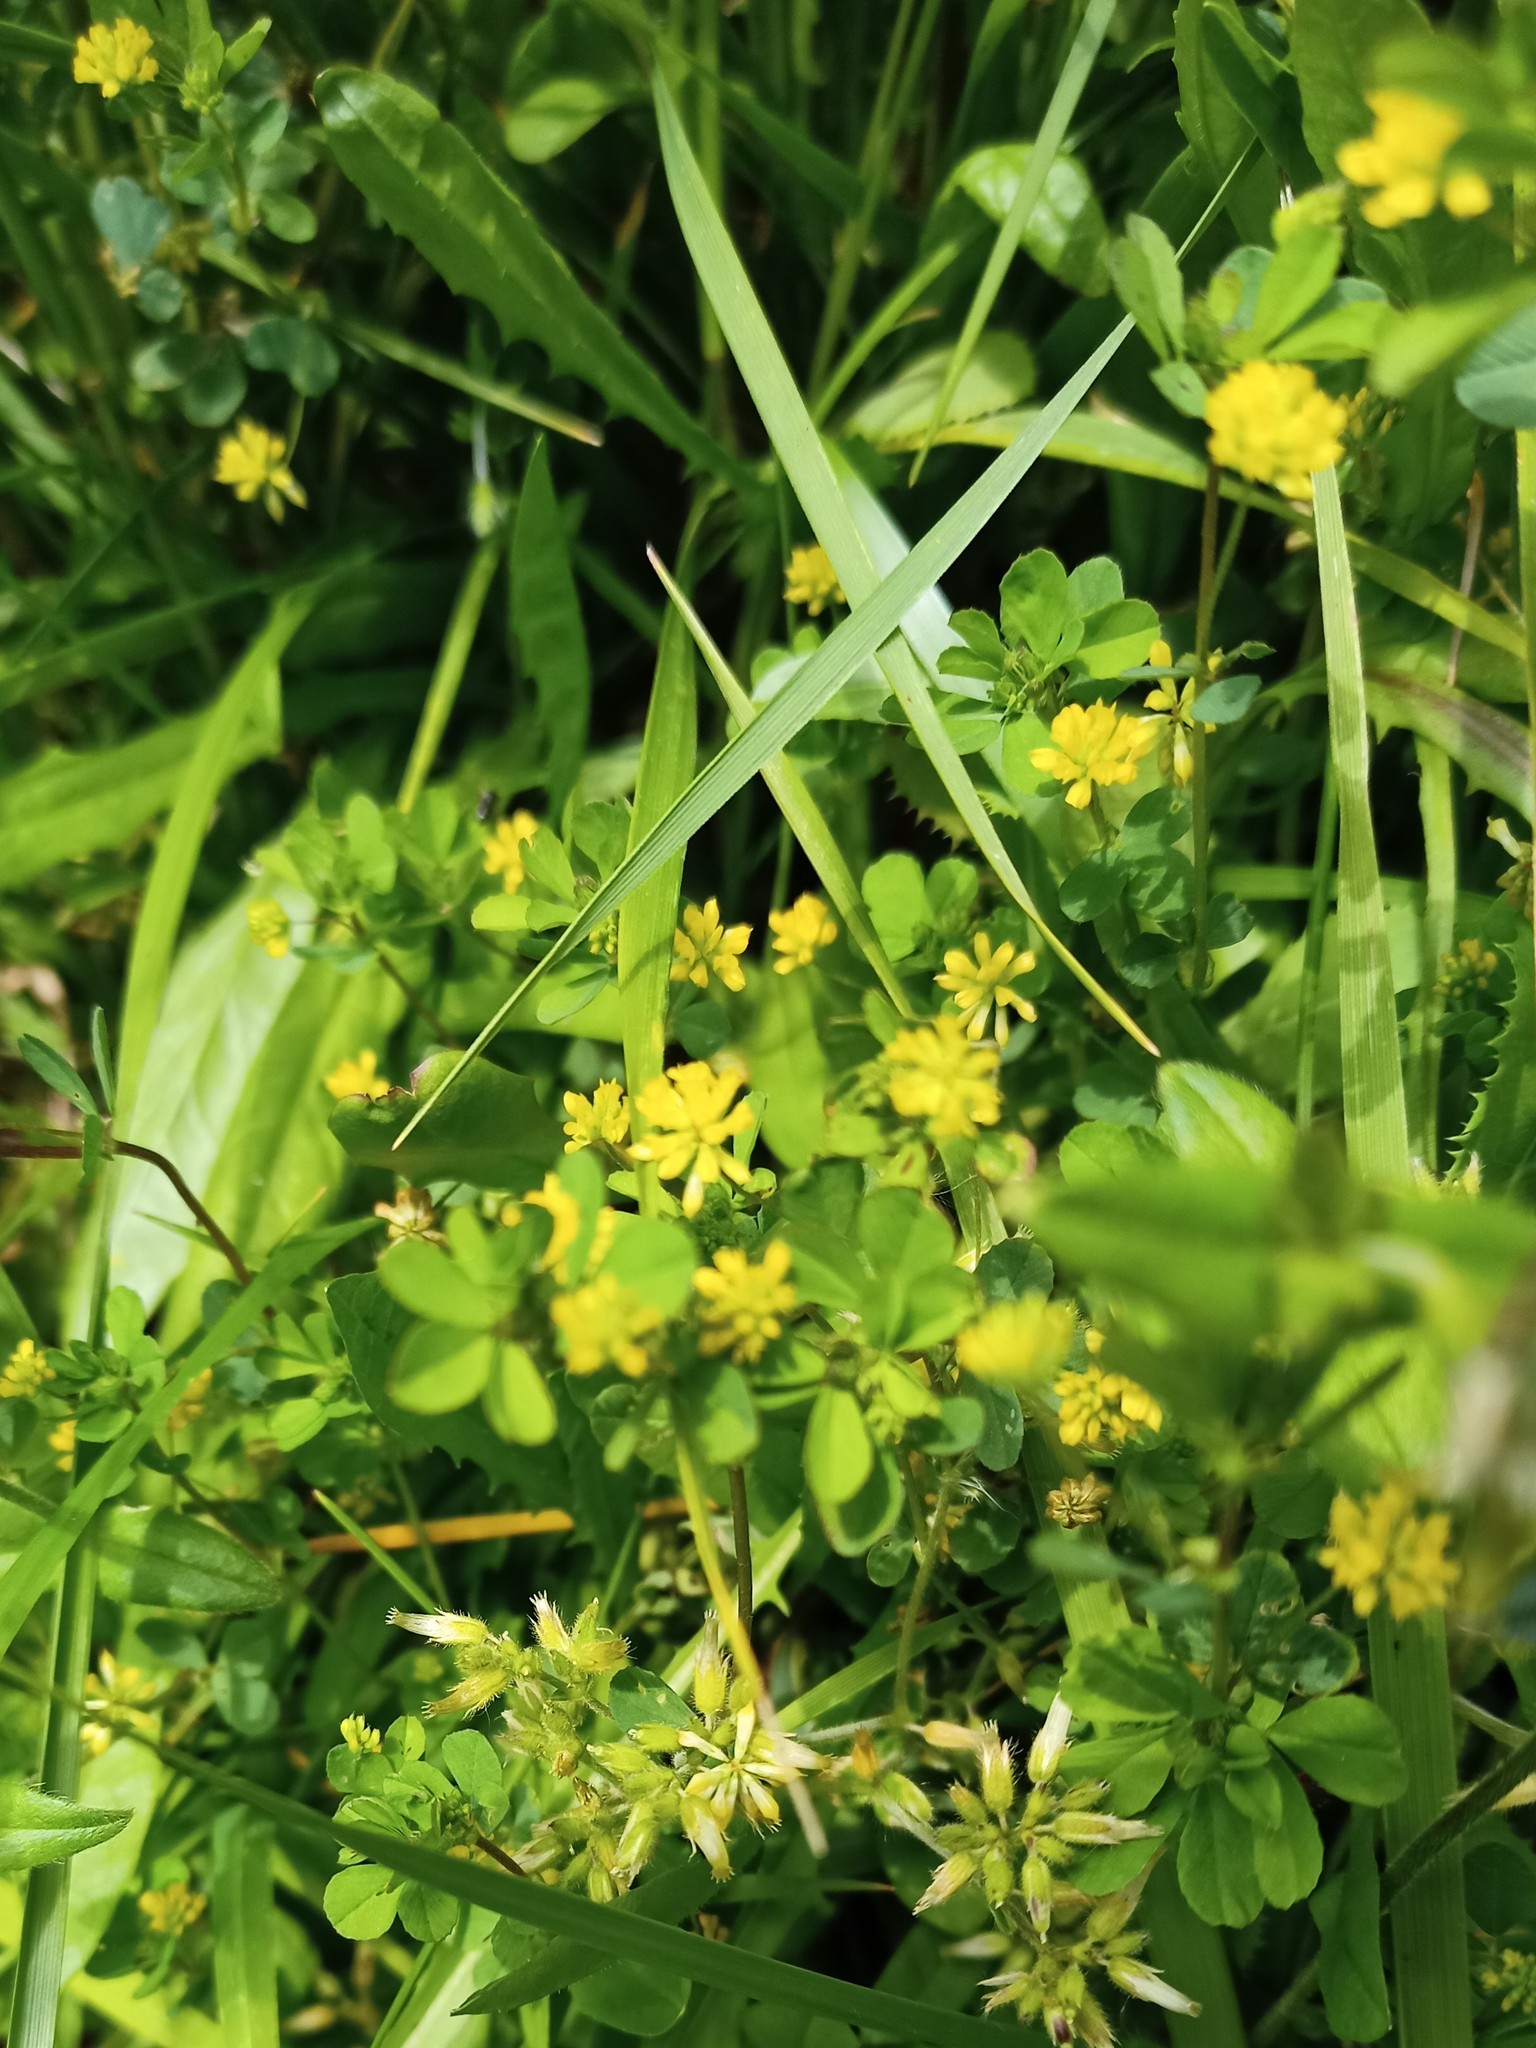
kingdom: Plantae
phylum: Tracheophyta
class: Magnoliopsida
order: Fabales
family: Fabaceae
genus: Trifolium
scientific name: Trifolium dubium
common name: Suckling clover
